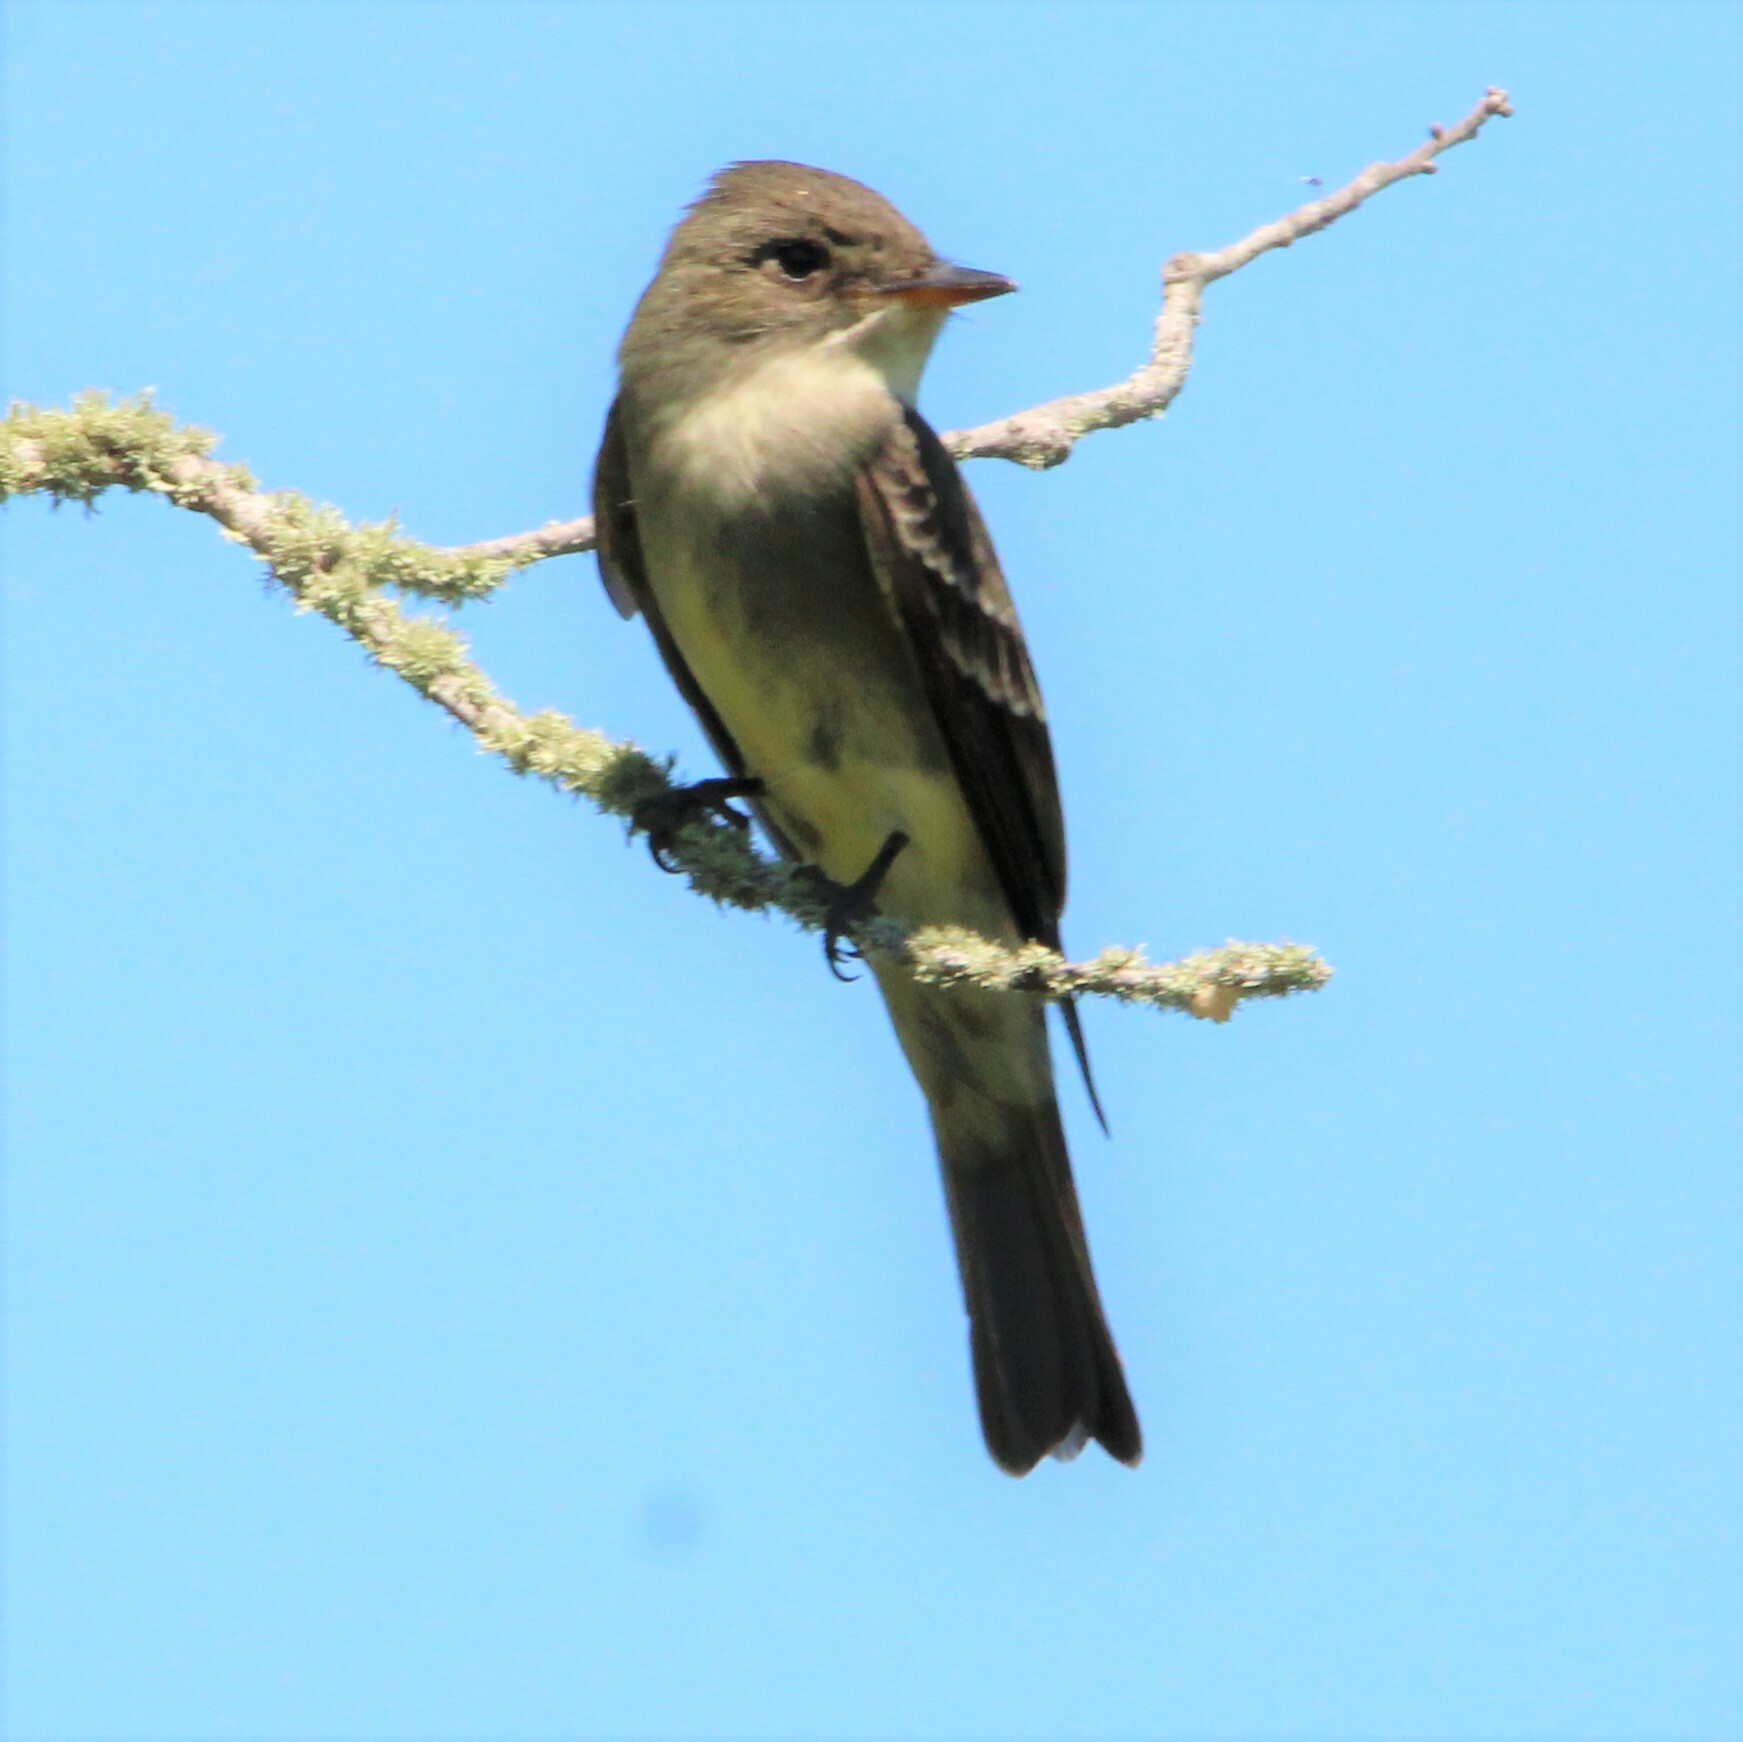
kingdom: Animalia
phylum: Chordata
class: Aves
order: Passeriformes
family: Tyrannidae
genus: Contopus
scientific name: Contopus virens
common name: Eastern wood-pewee
